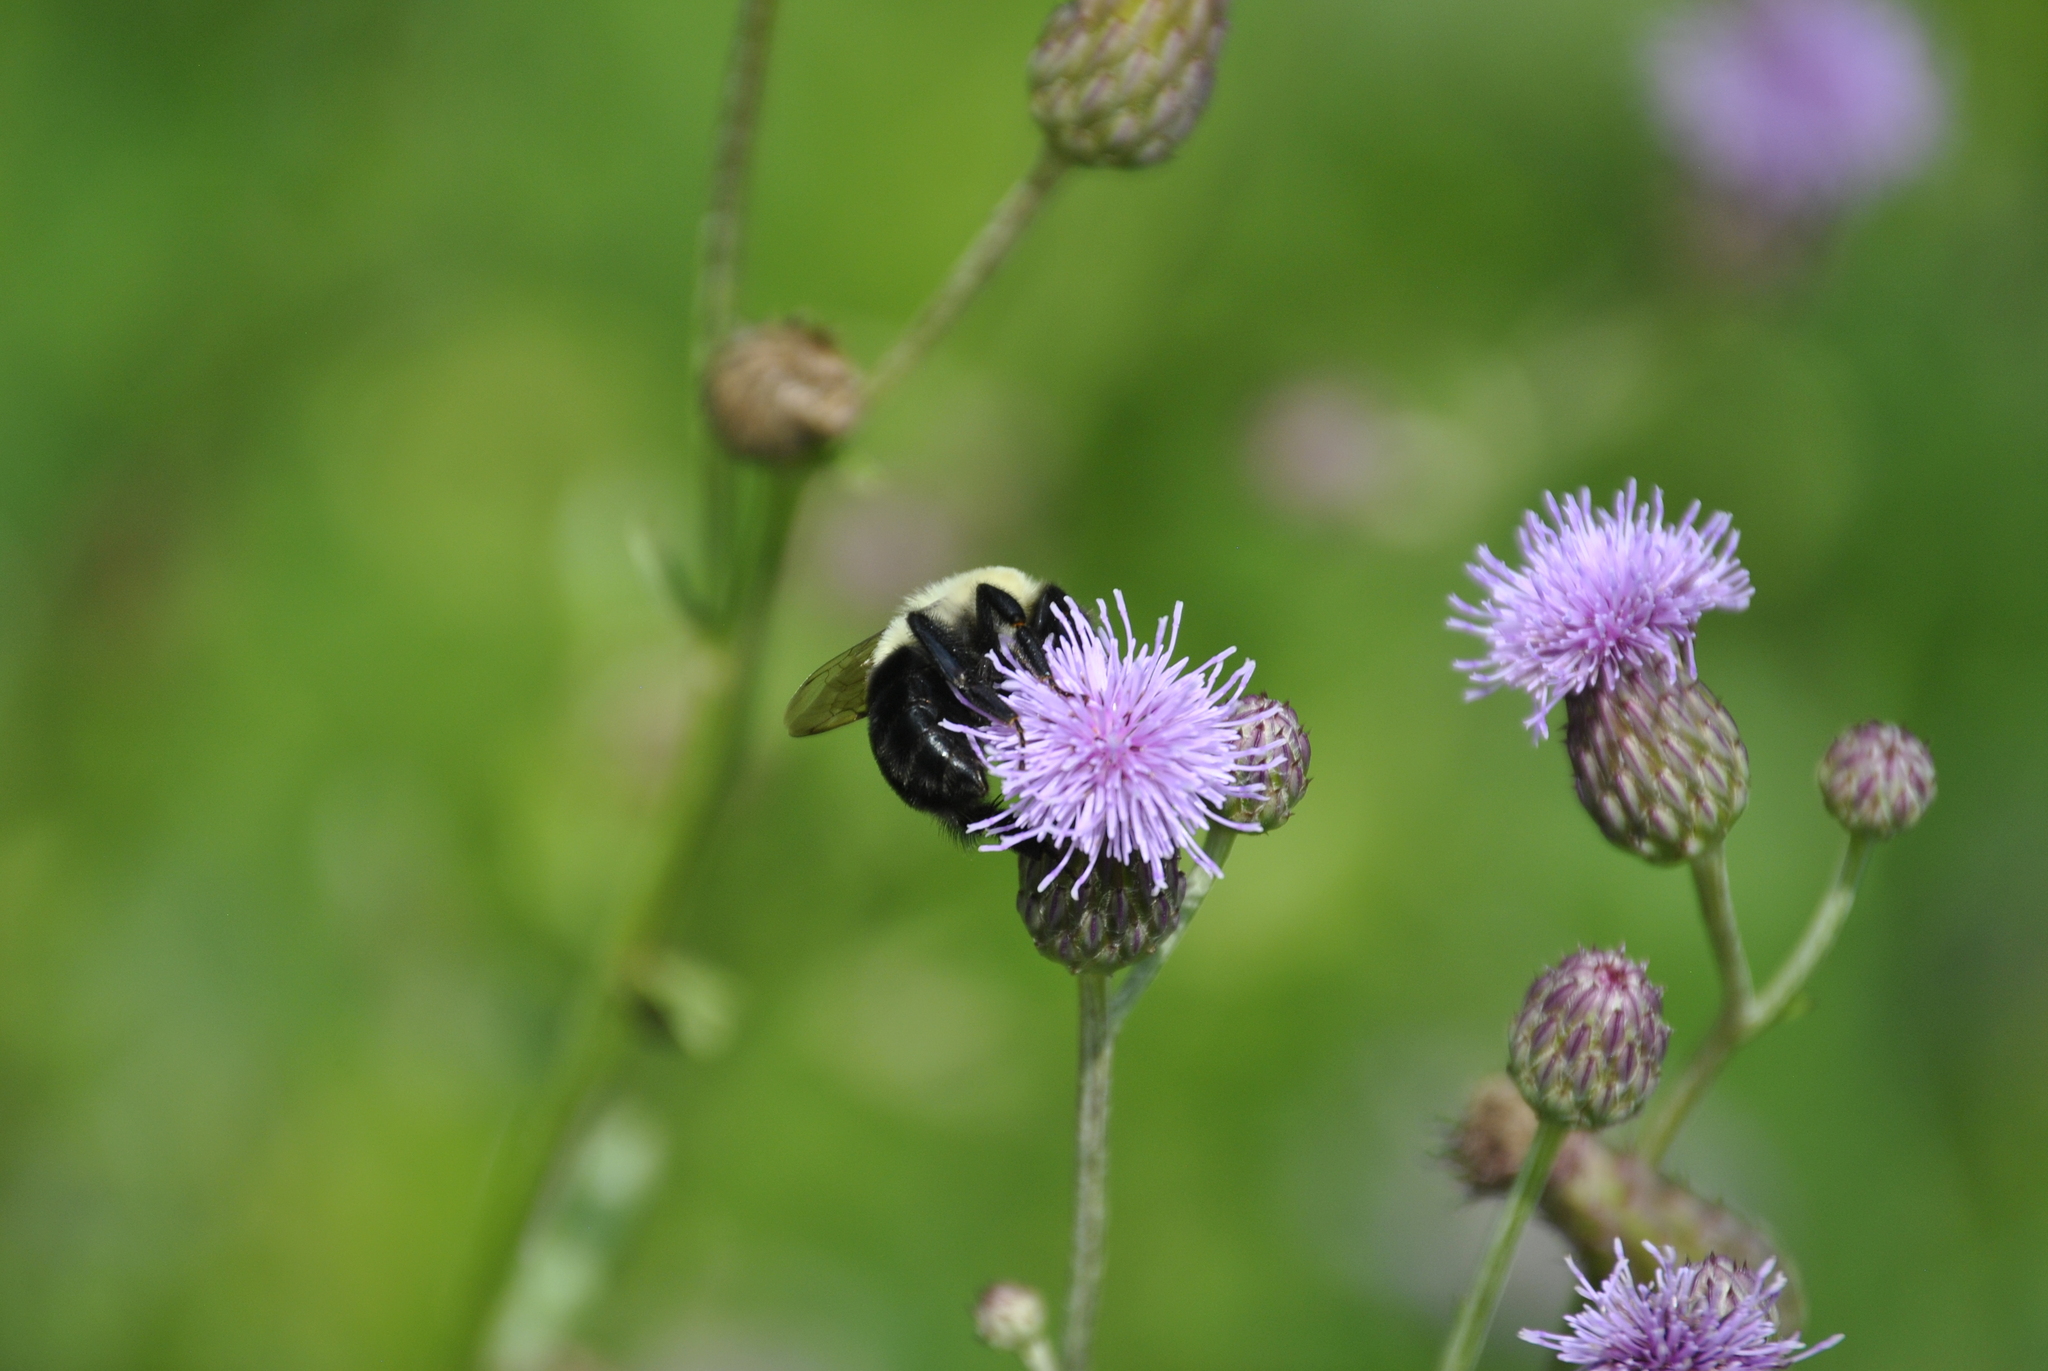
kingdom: Plantae
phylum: Tracheophyta
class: Magnoliopsida
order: Asterales
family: Asteraceae
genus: Cirsium
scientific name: Cirsium arvense
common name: Creeping thistle
